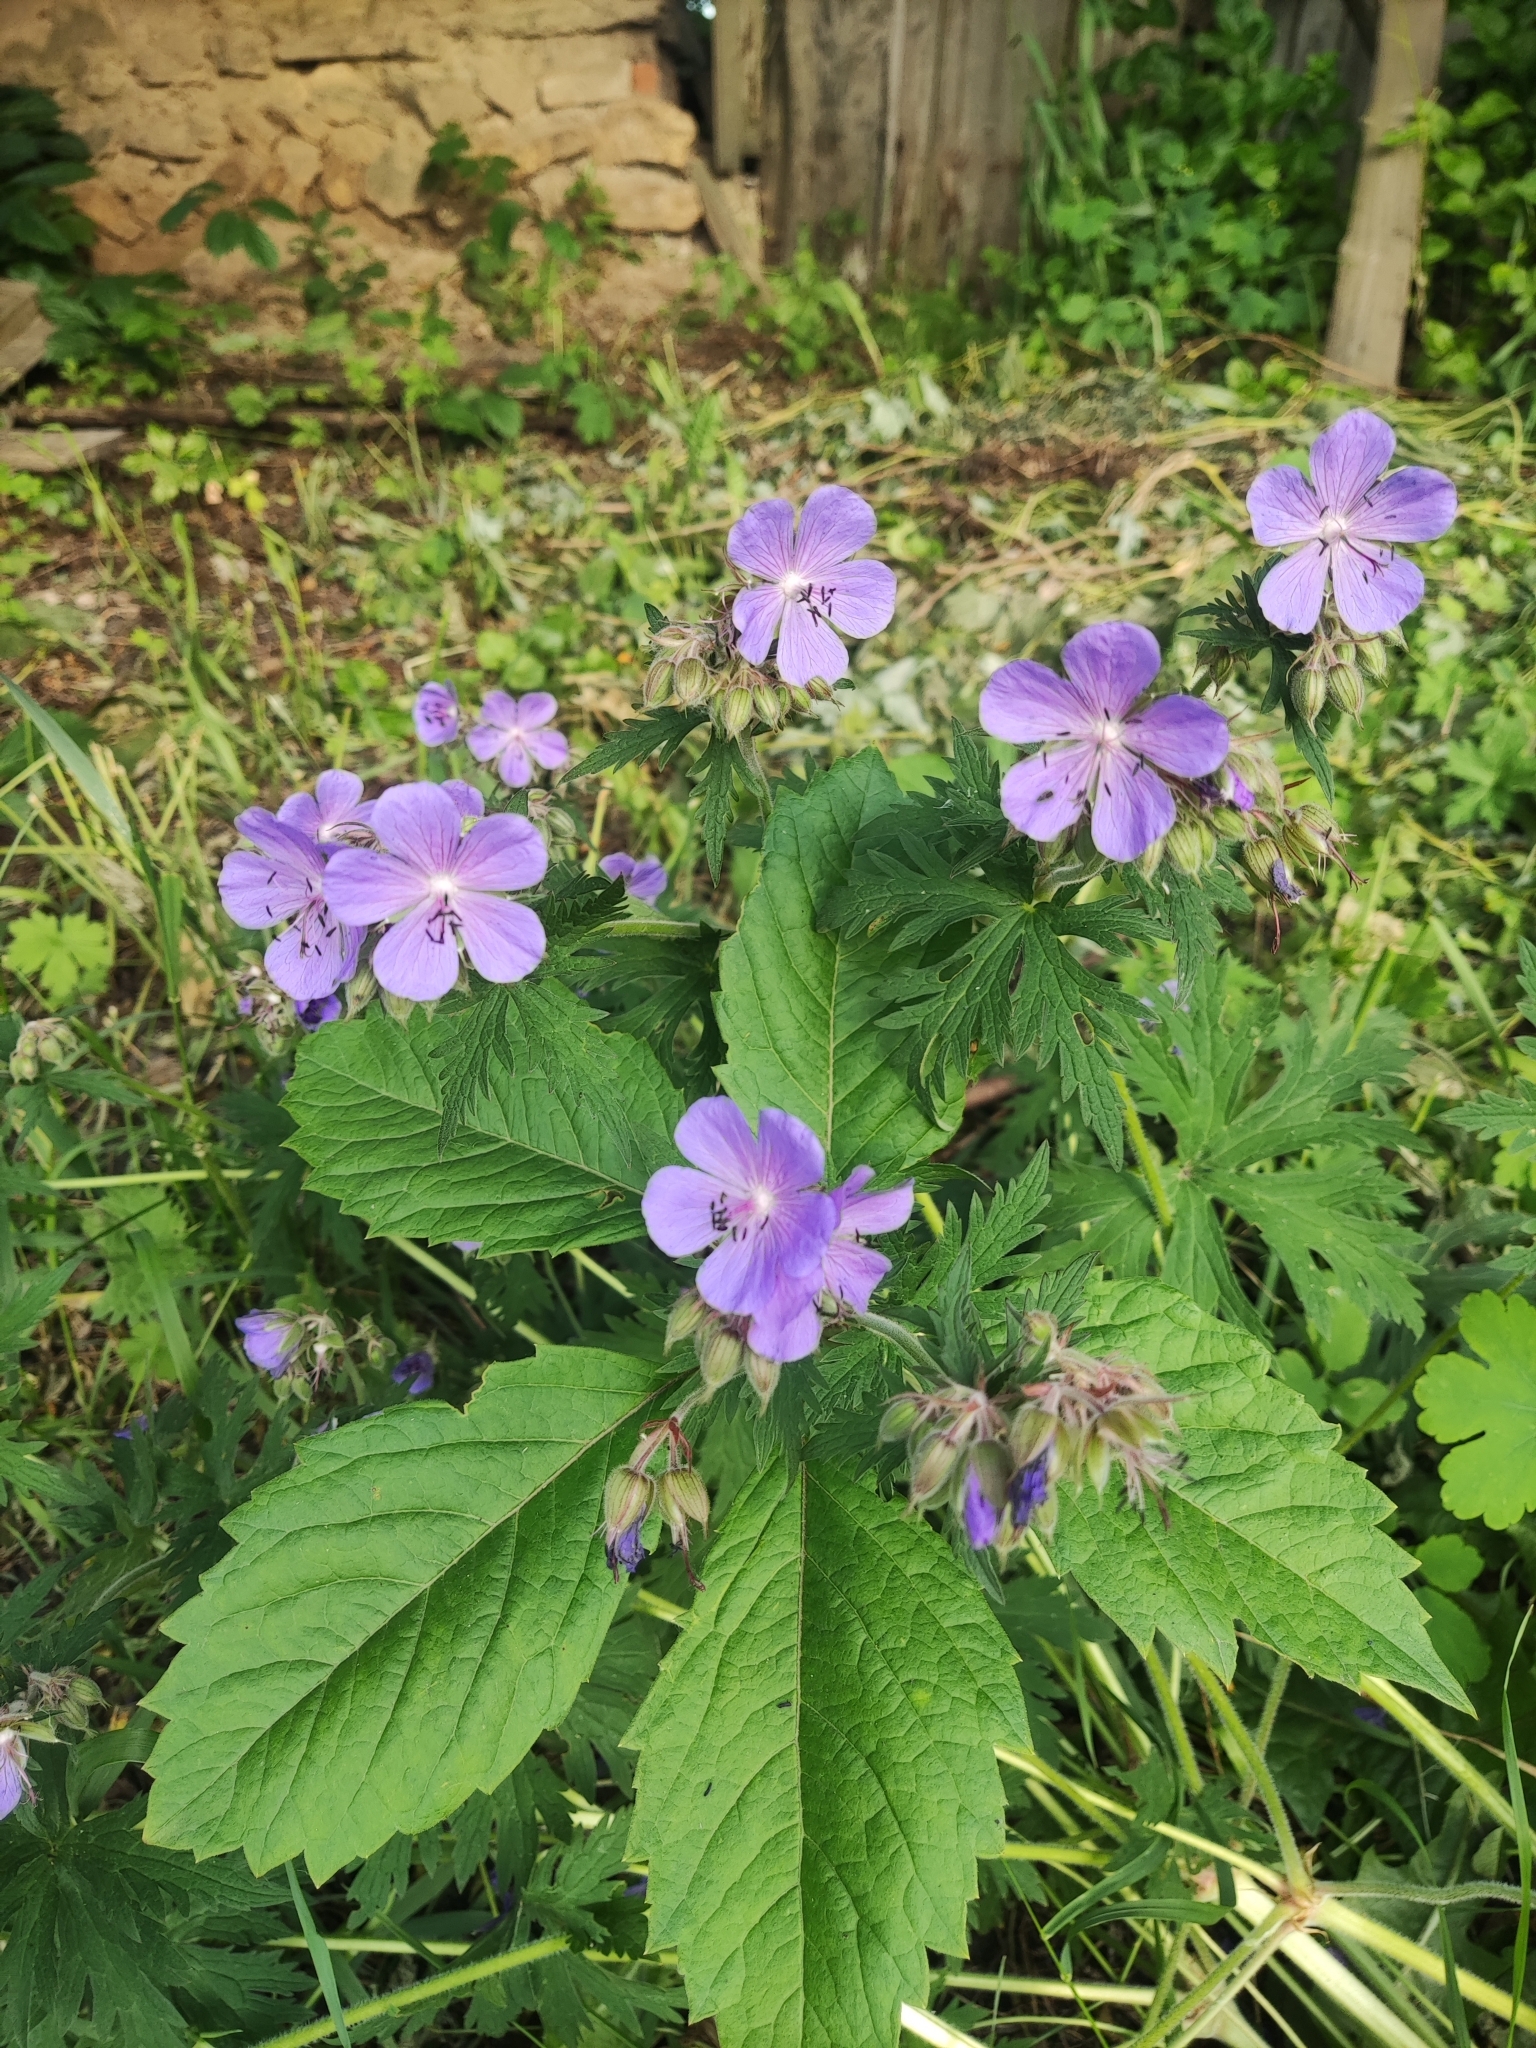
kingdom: Plantae
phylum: Tracheophyta
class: Magnoliopsida
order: Geraniales
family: Geraniaceae
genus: Geranium
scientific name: Geranium pratense
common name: Meadow crane's-bill
